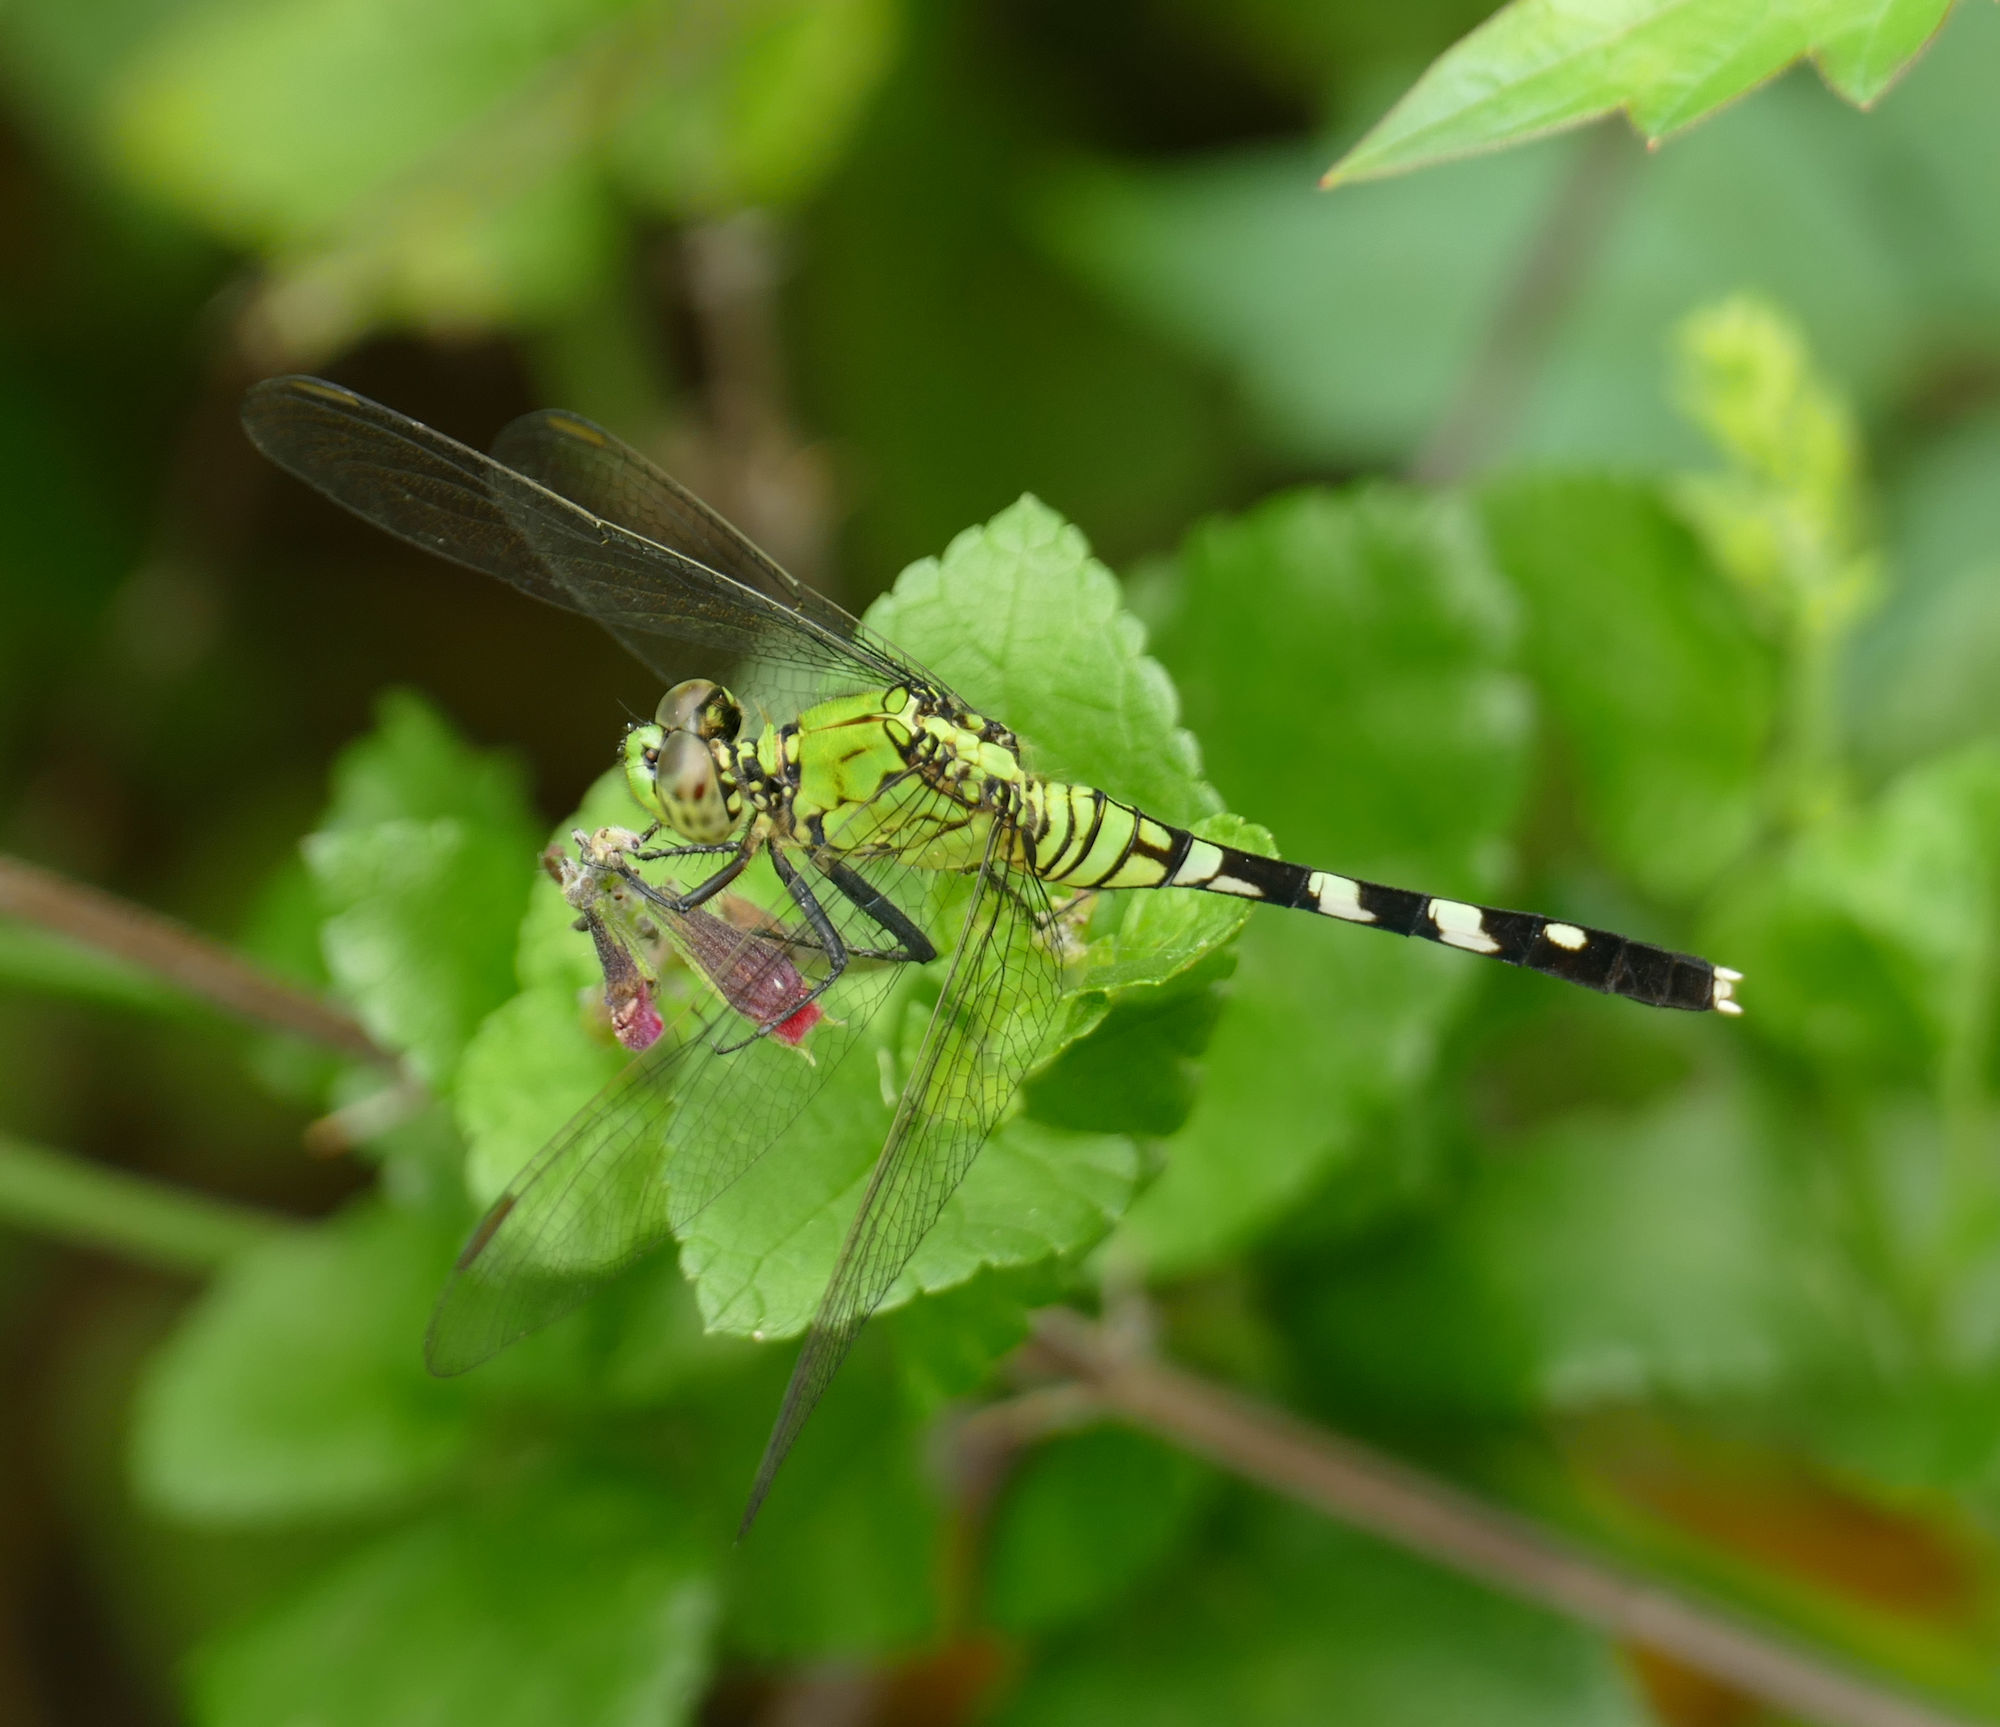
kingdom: Animalia
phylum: Arthropoda
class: Insecta
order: Odonata
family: Libellulidae
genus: Erythemis
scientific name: Erythemis simplicicollis
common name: Eastern pondhawk
